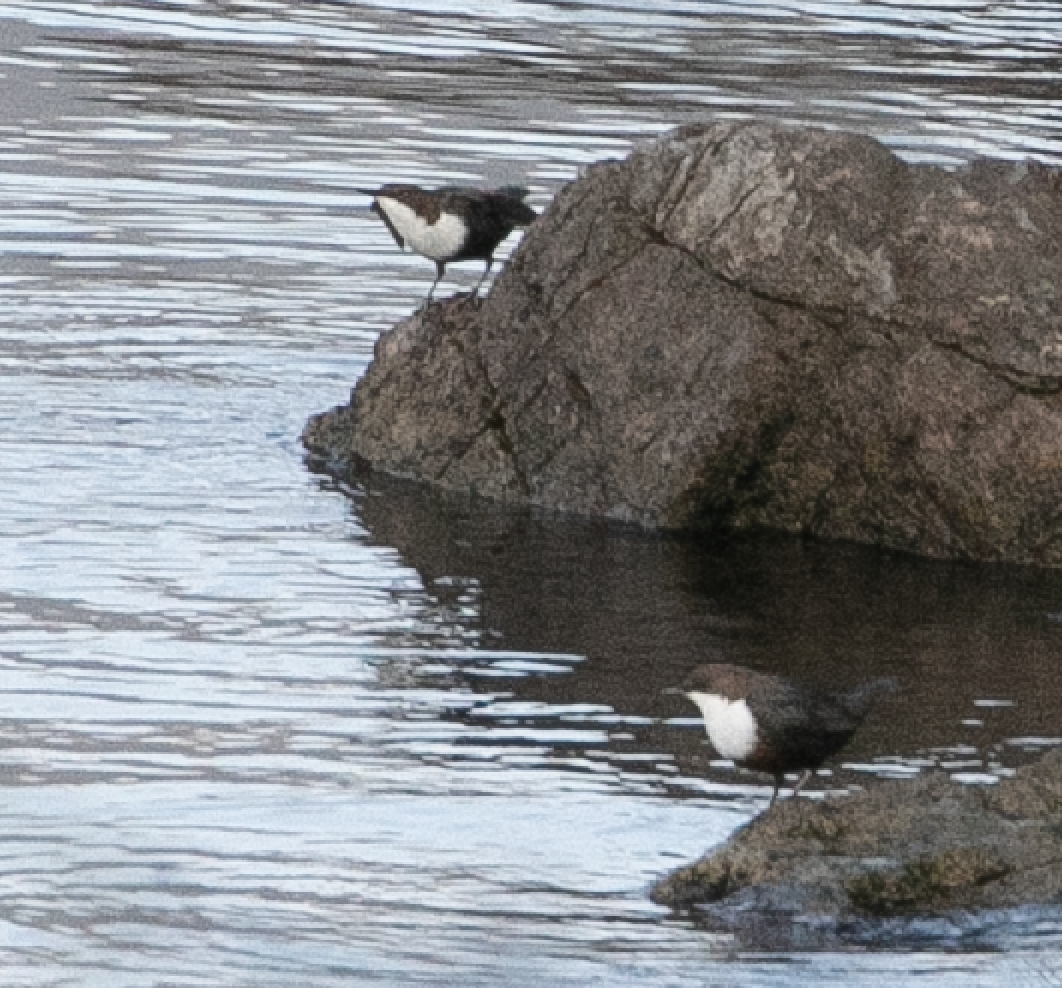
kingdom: Animalia
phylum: Chordata
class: Aves
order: Passeriformes
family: Cinclidae
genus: Cinclus
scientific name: Cinclus cinclus
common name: White-throated dipper
